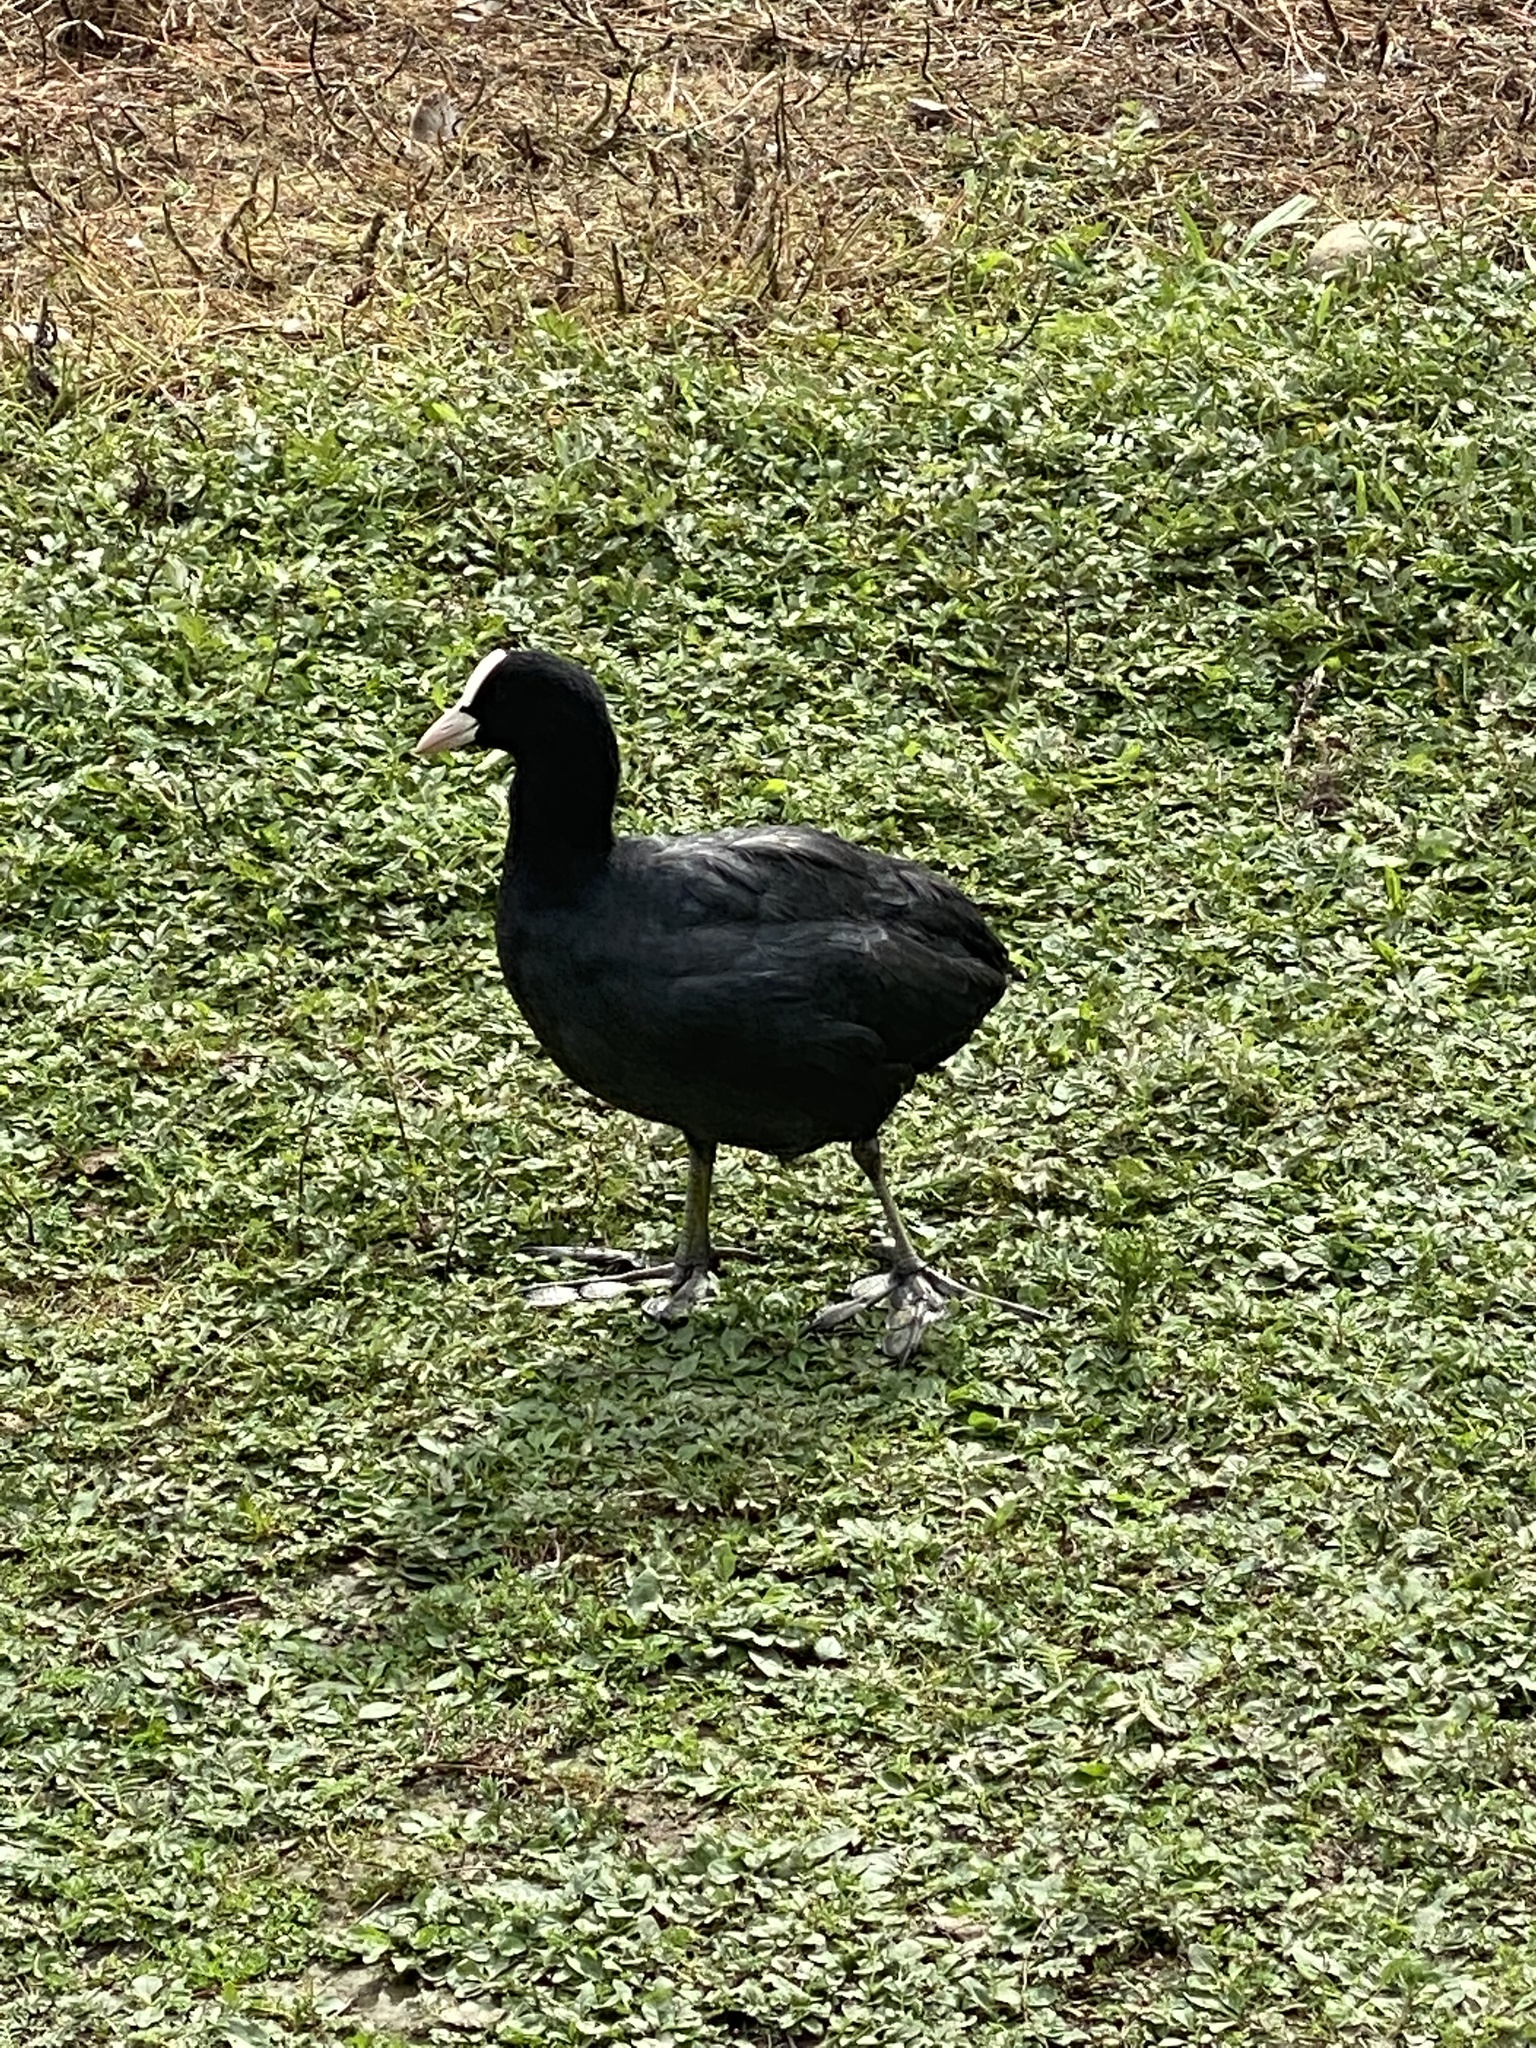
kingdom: Animalia
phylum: Chordata
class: Aves
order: Gruiformes
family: Rallidae
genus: Fulica
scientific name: Fulica atra
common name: Eurasian coot
